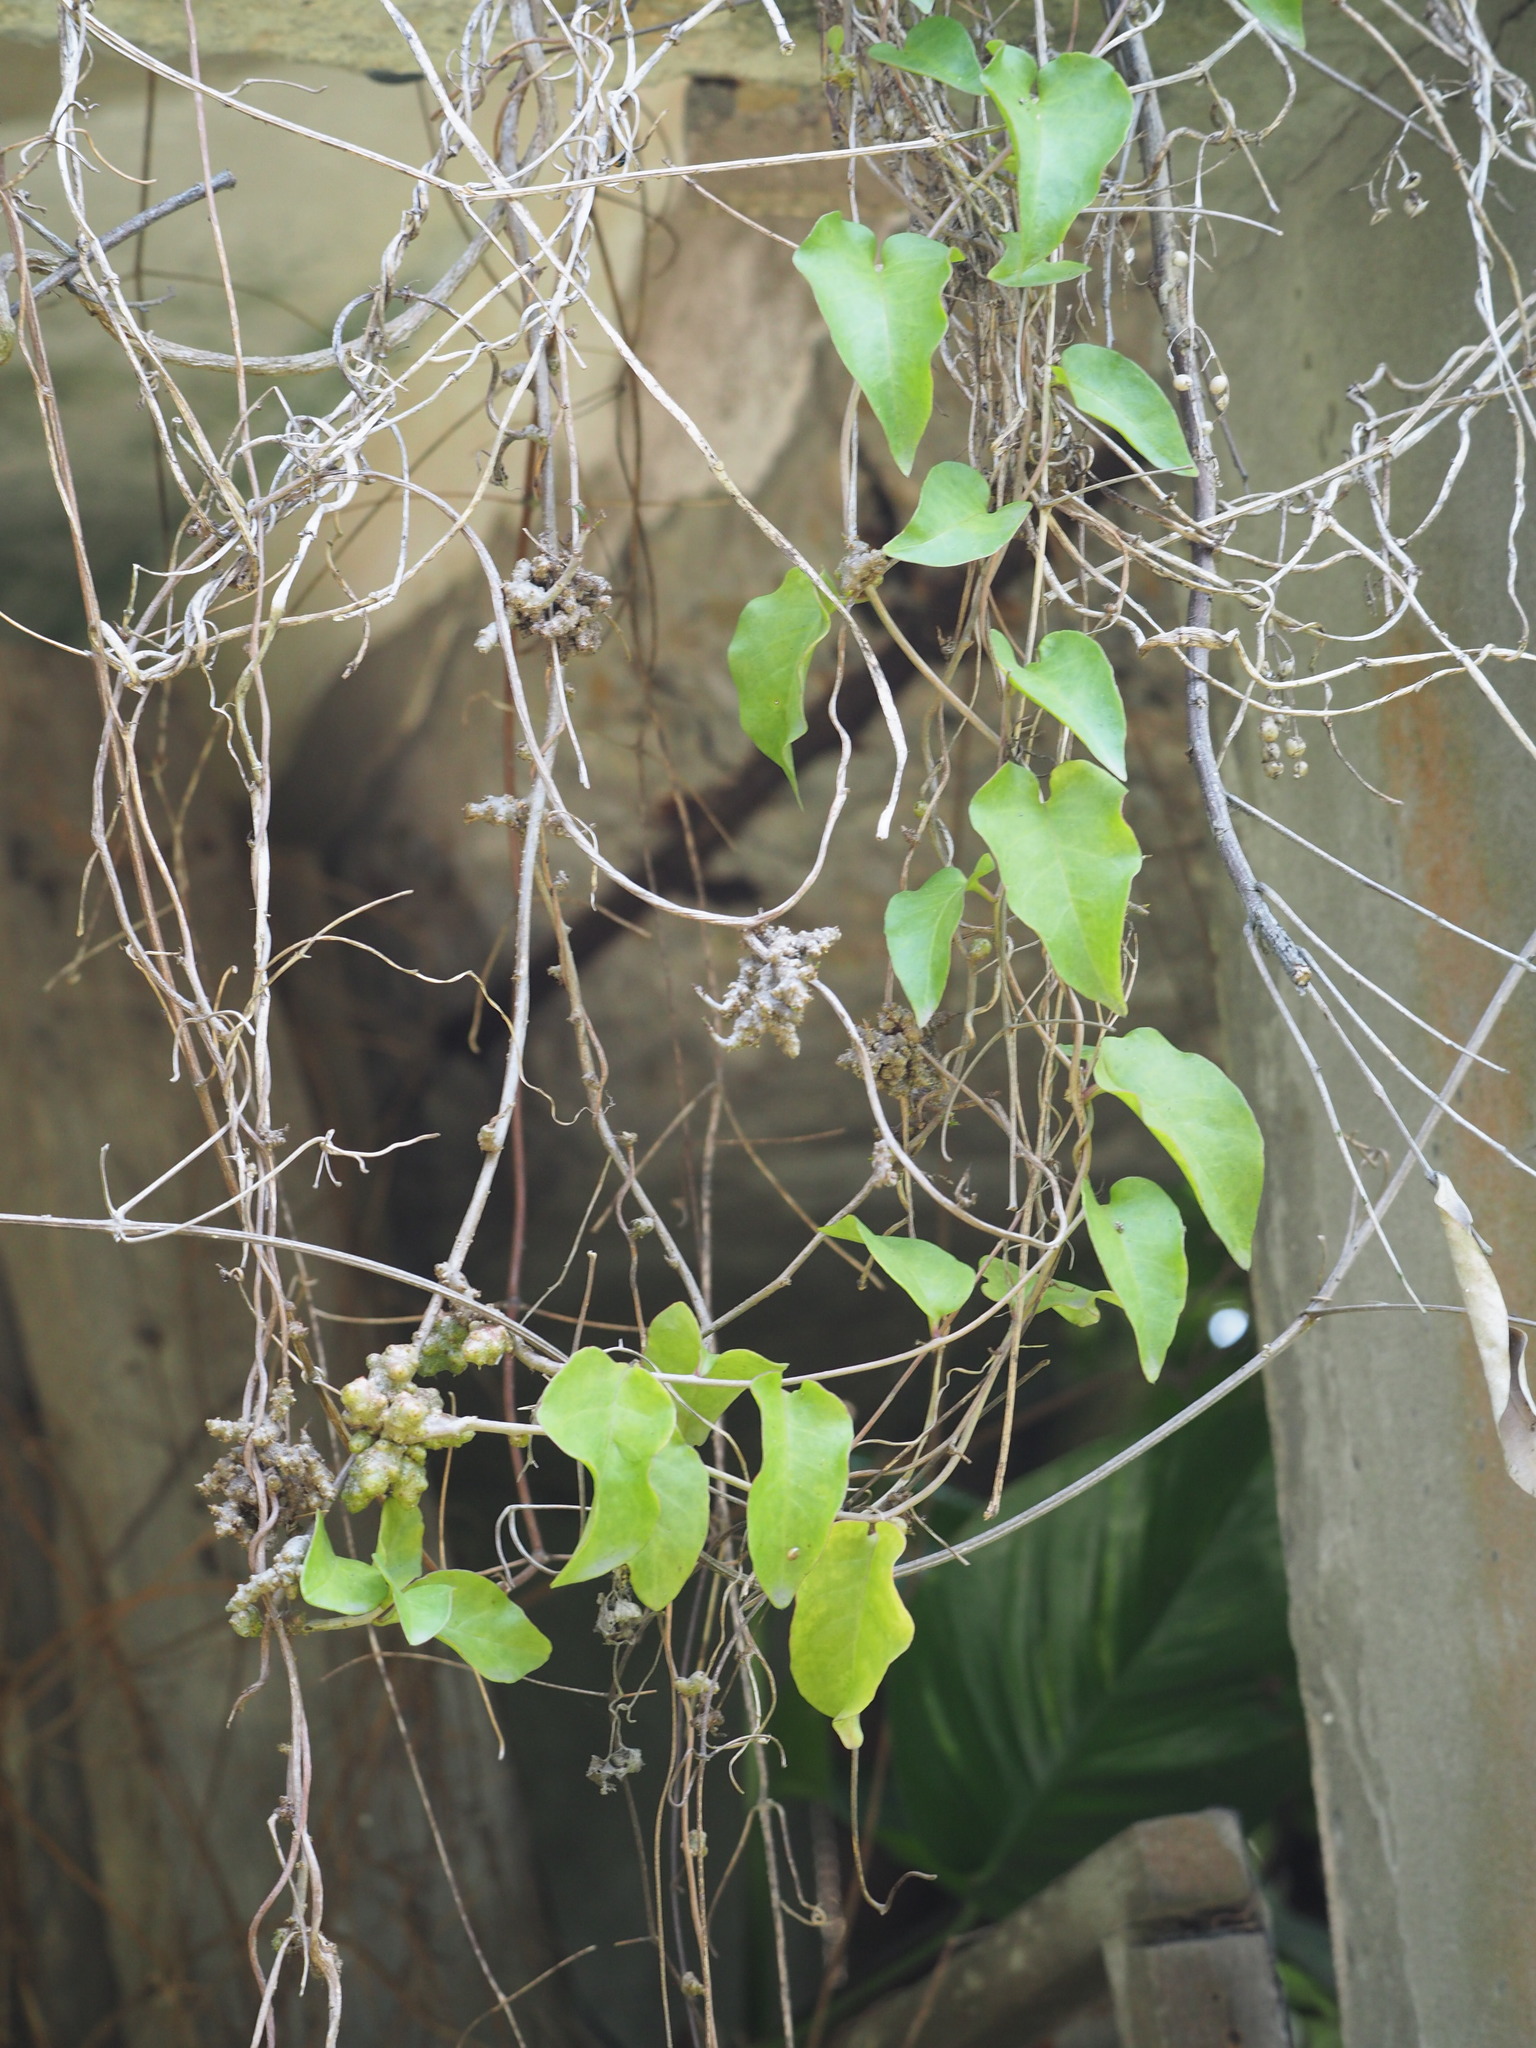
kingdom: Plantae
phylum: Tracheophyta
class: Magnoliopsida
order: Caryophyllales
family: Basellaceae
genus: Anredera
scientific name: Anredera cordifolia
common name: Heartleaf madeiravine
